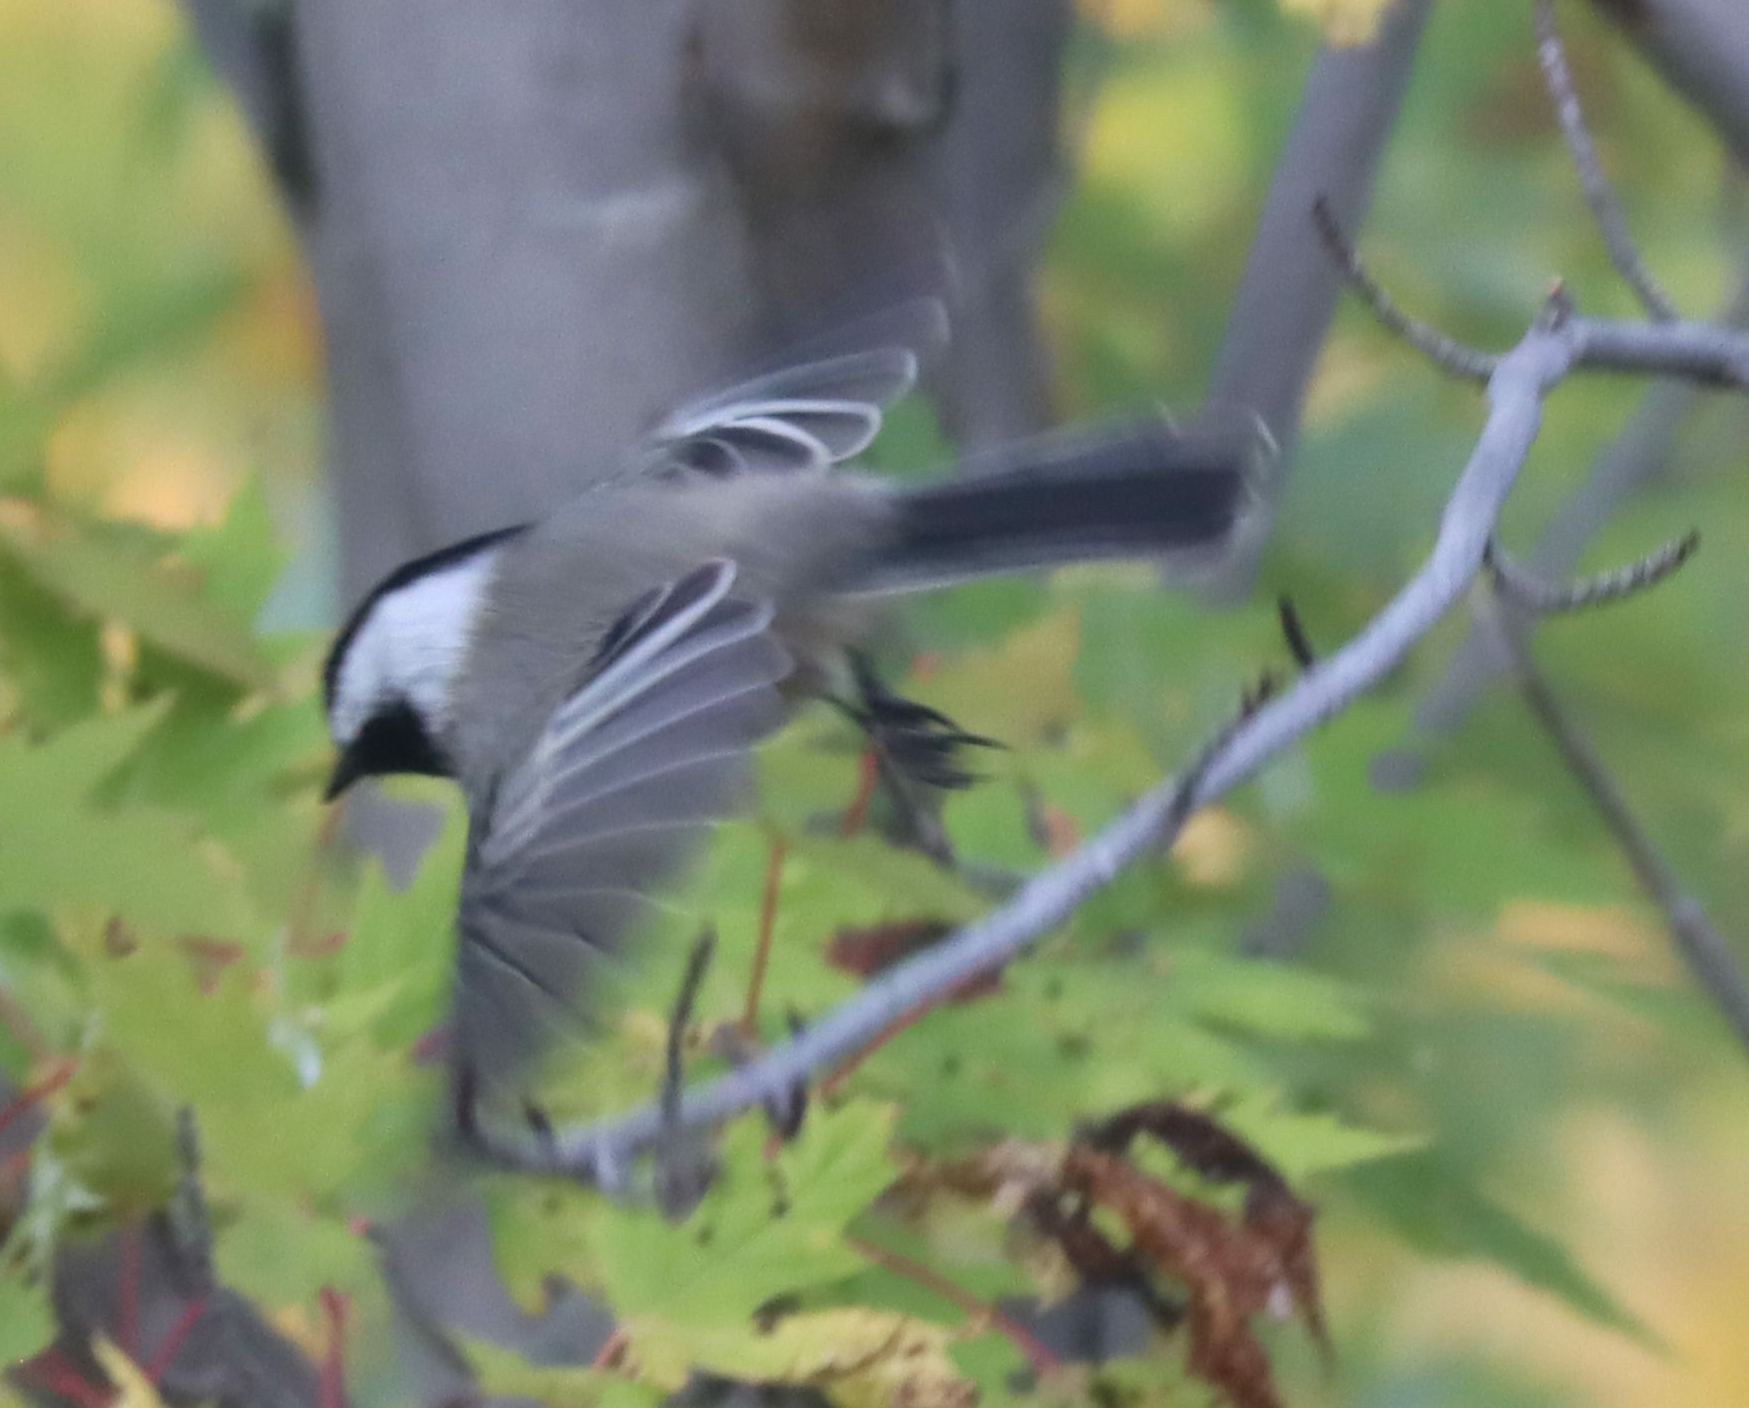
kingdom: Animalia
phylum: Chordata
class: Aves
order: Passeriformes
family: Paridae
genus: Poecile
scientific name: Poecile atricapillus
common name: Black-capped chickadee
